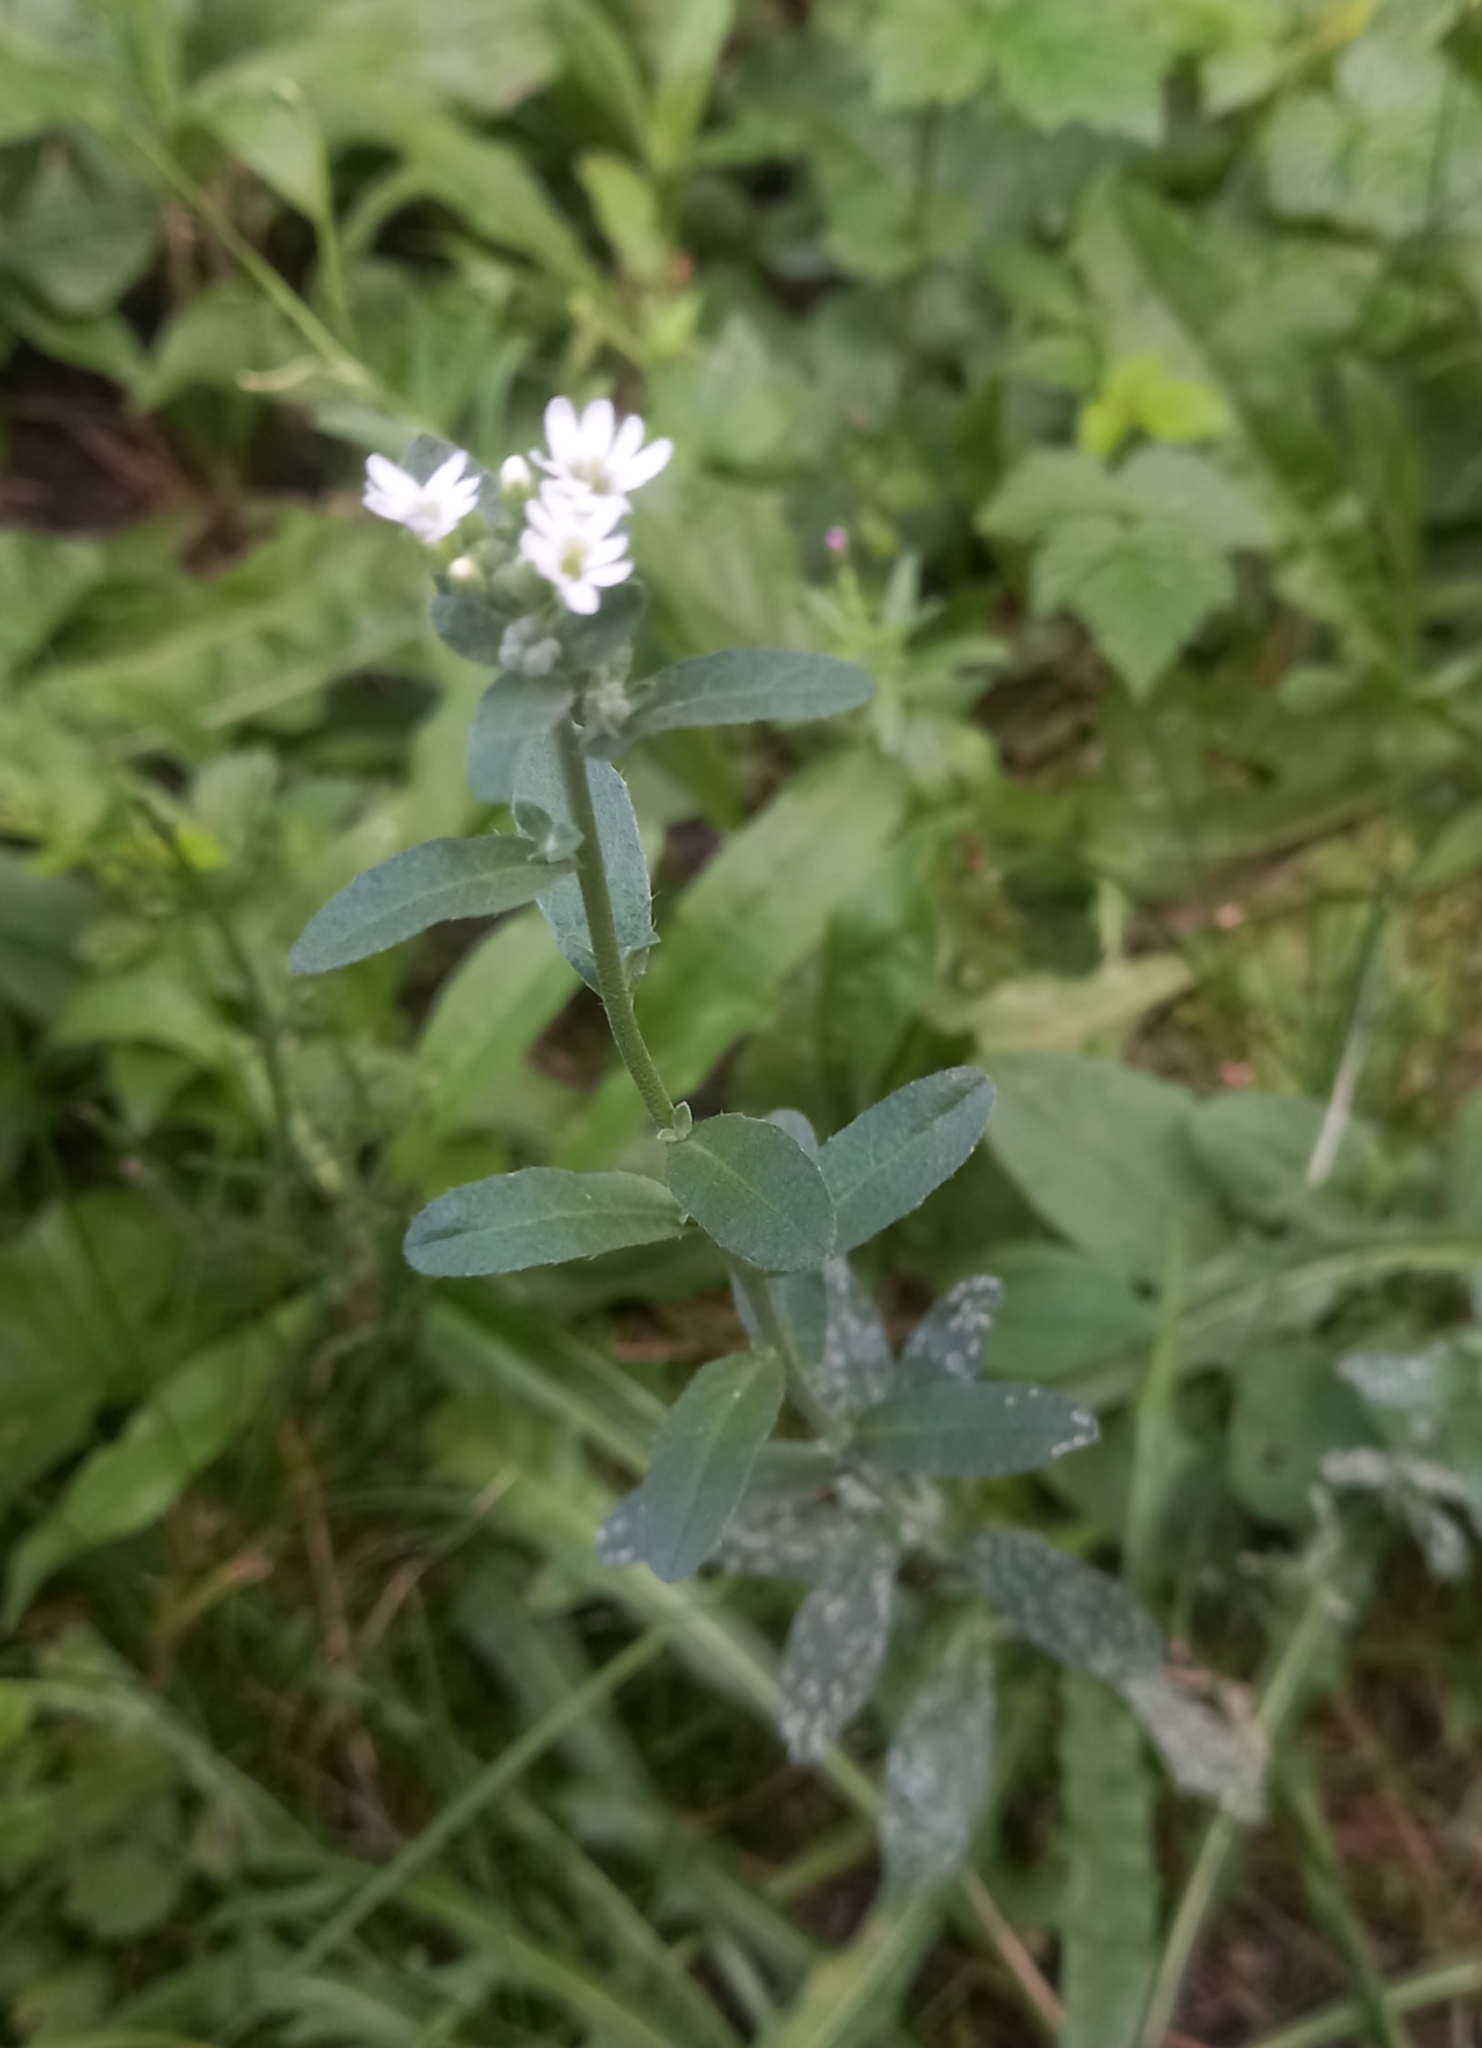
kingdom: Plantae
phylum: Tracheophyta
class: Magnoliopsida
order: Brassicales
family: Brassicaceae
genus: Berteroa
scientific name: Berteroa incana
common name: Hoary alison
